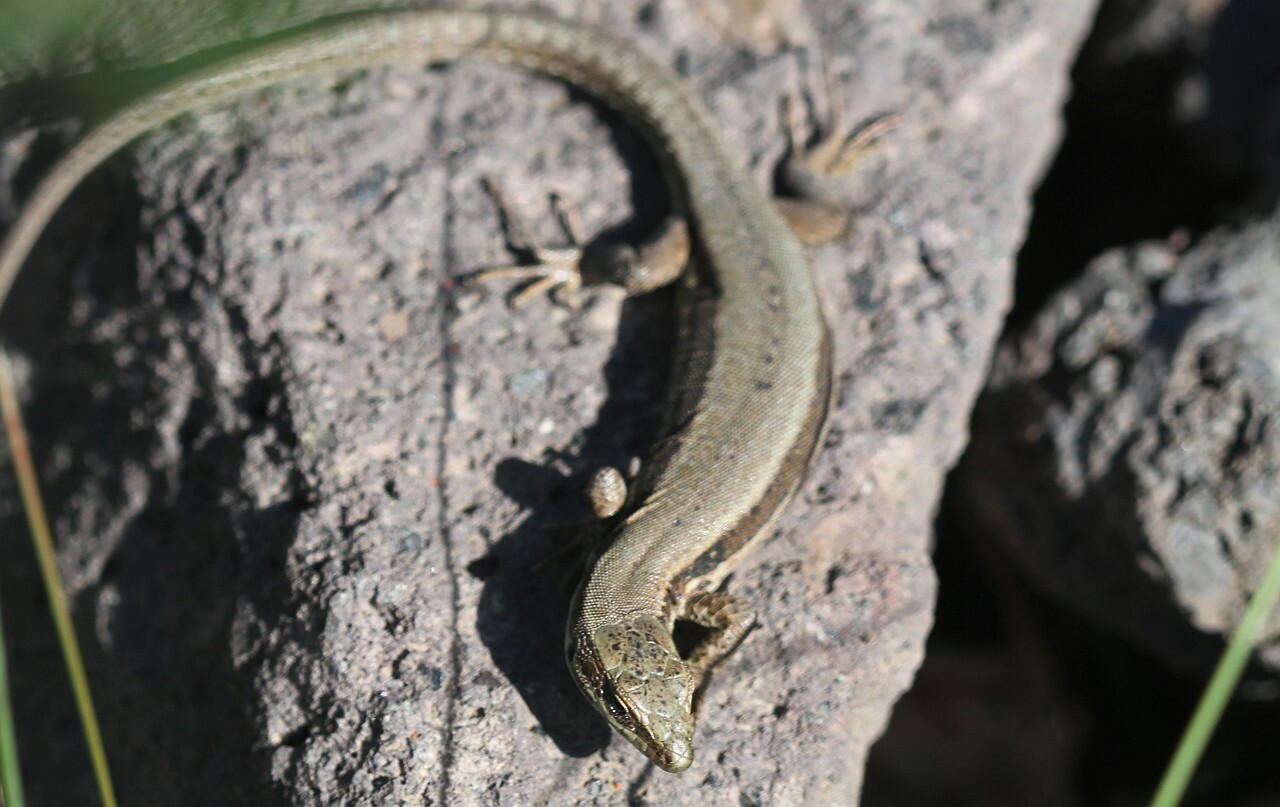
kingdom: Animalia
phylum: Chordata
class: Squamata
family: Lacertidae
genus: Podarcis
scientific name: Podarcis muralis
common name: Common wall lizard
